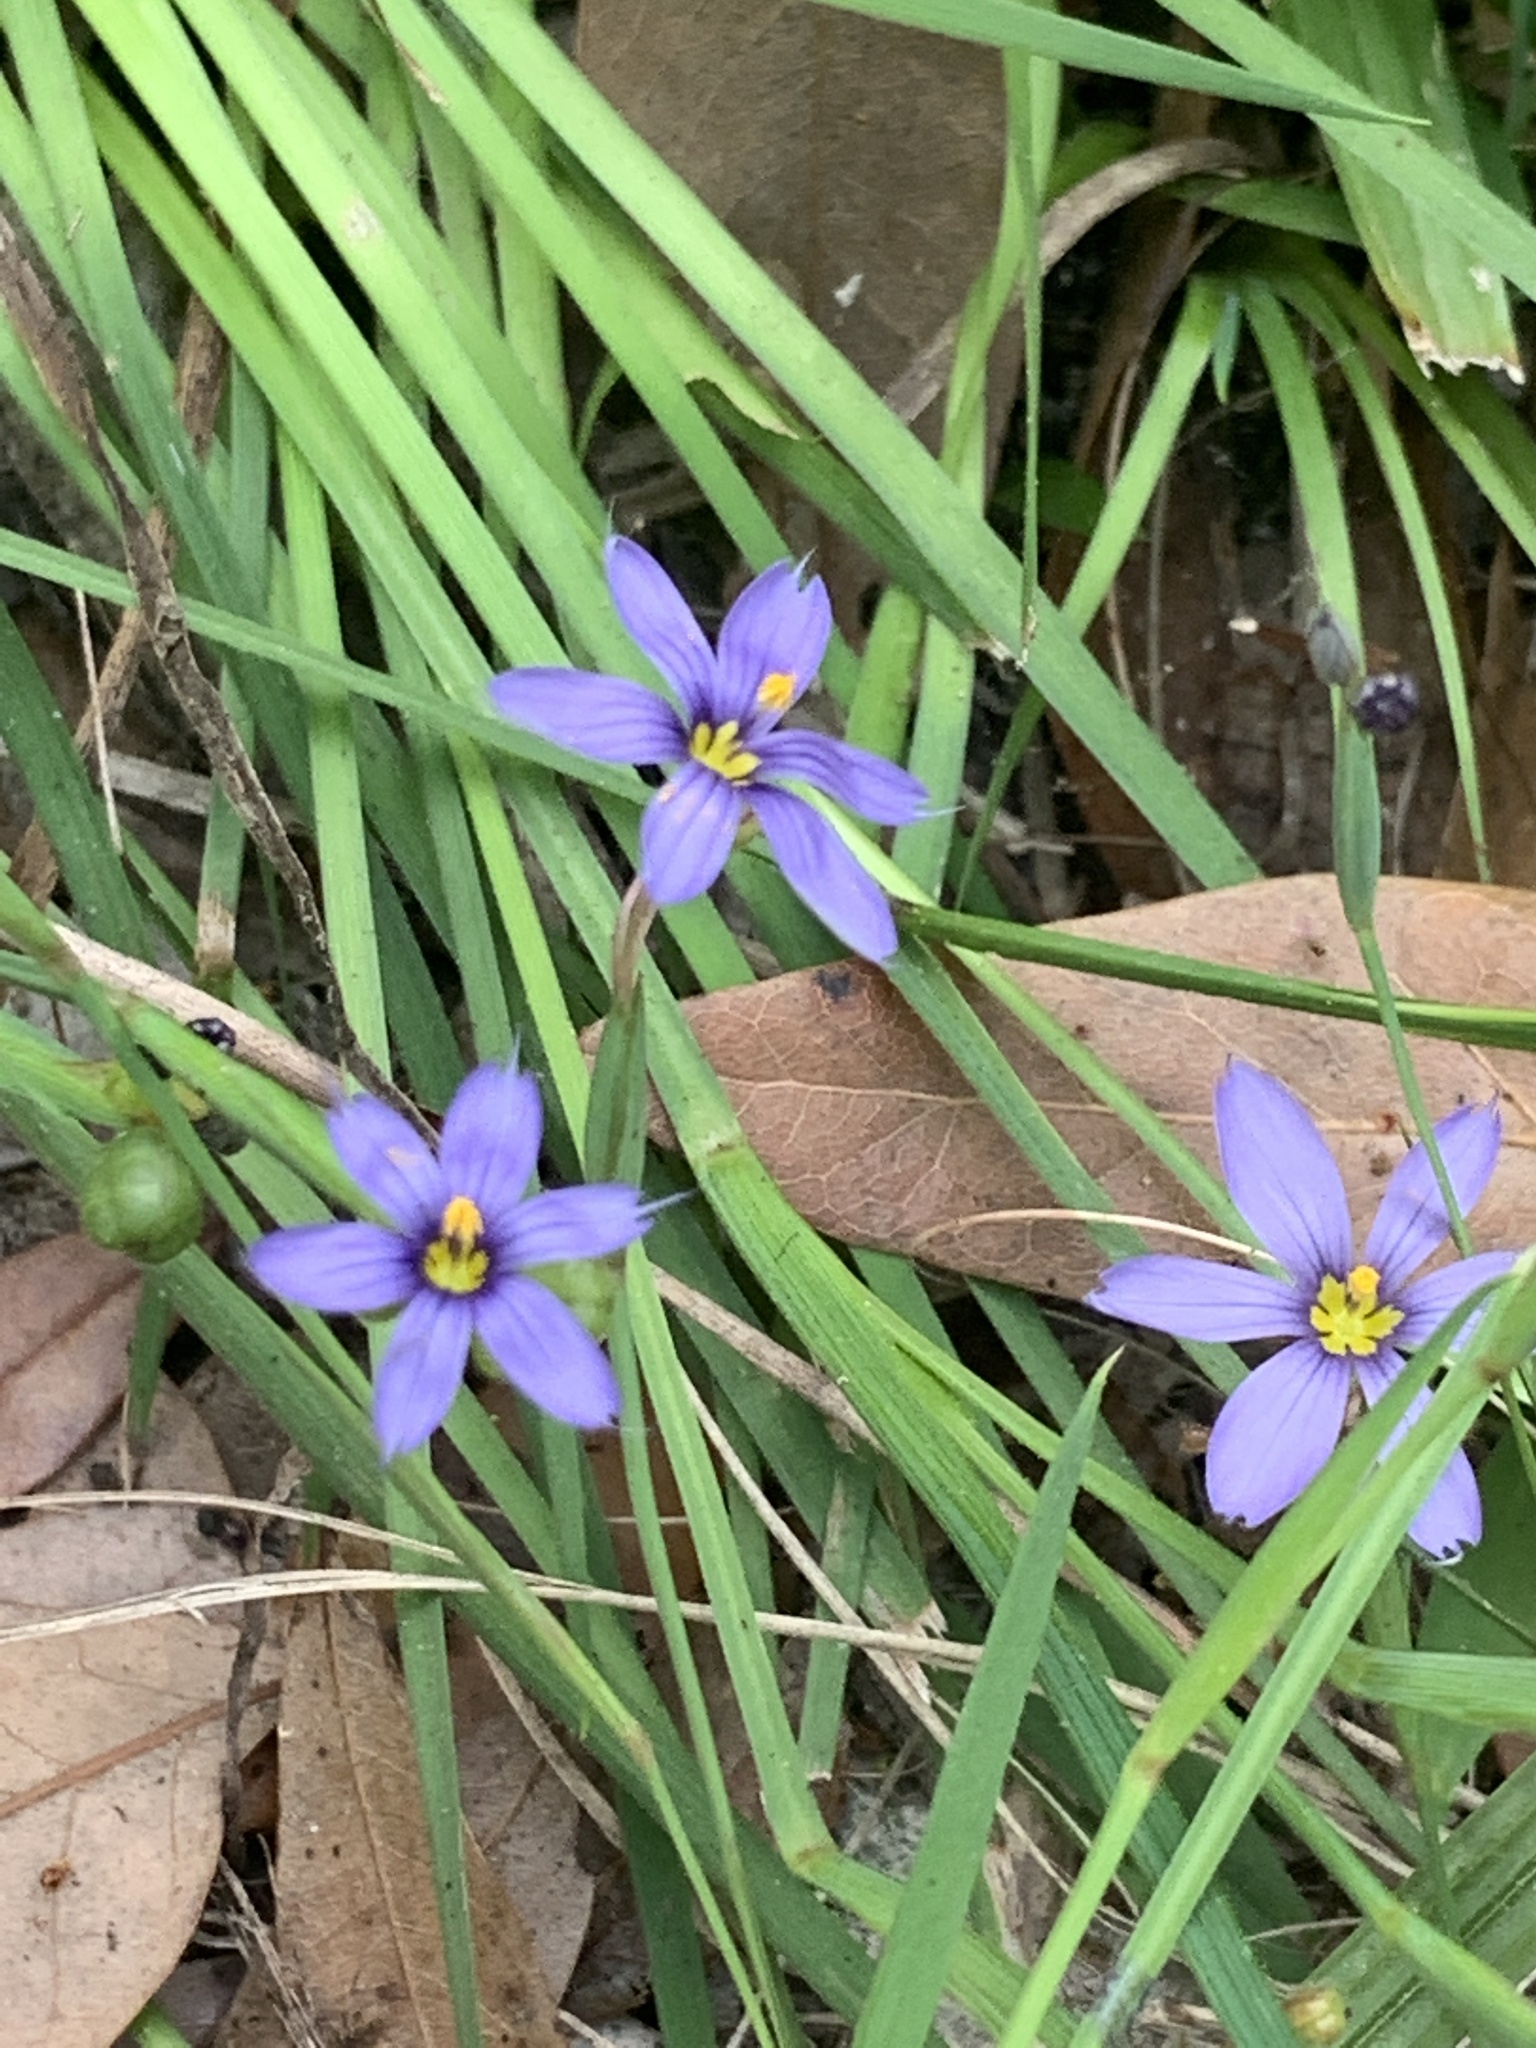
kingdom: Plantae
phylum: Tracheophyta
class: Liliopsida
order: Asparagales
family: Iridaceae
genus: Sisyrinchium
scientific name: Sisyrinchium angustifolium
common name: Narrow-leaf blue-eyed-grass
